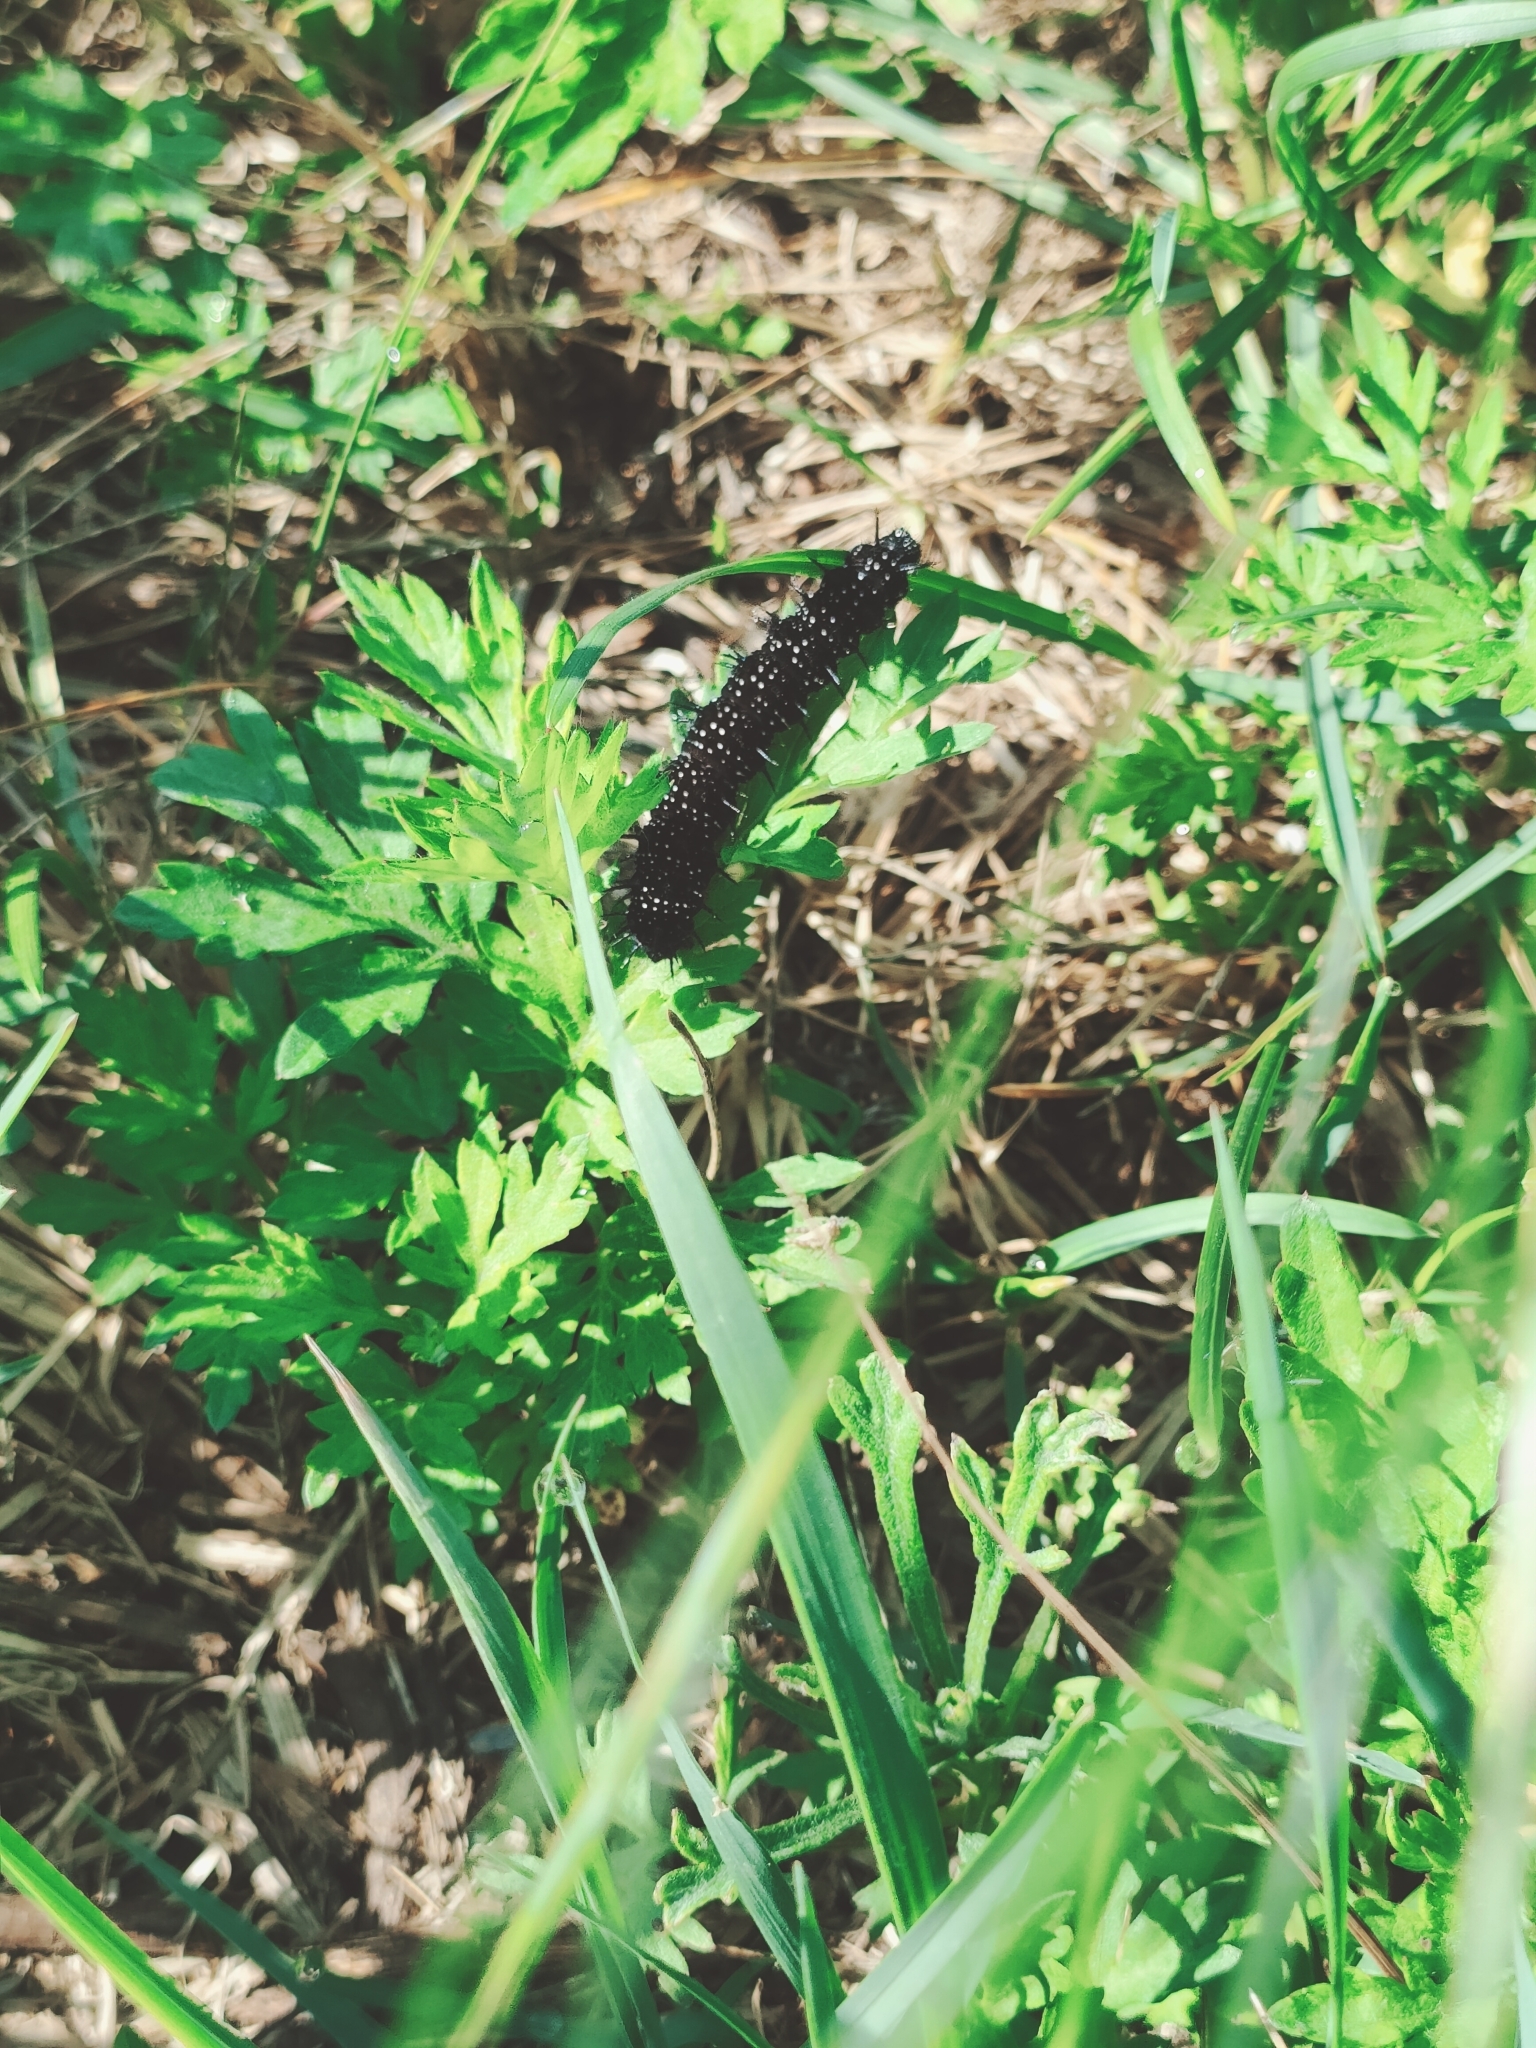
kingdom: Animalia
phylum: Arthropoda
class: Insecta
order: Lepidoptera
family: Nymphalidae
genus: Aglais
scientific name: Aglais io
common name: Peacock
